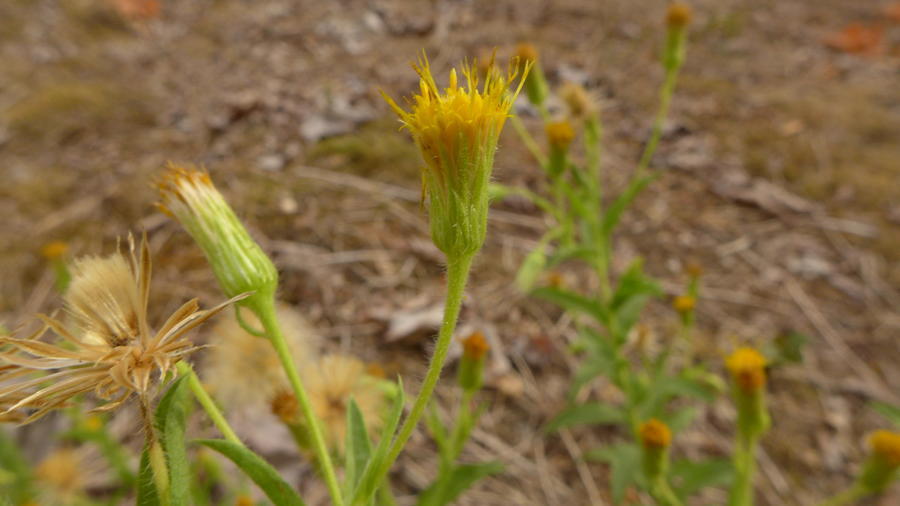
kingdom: Plantae
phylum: Tracheophyta
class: Magnoliopsida
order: Asterales
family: Asteraceae
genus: Heterotheca
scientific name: Heterotheca oregona
